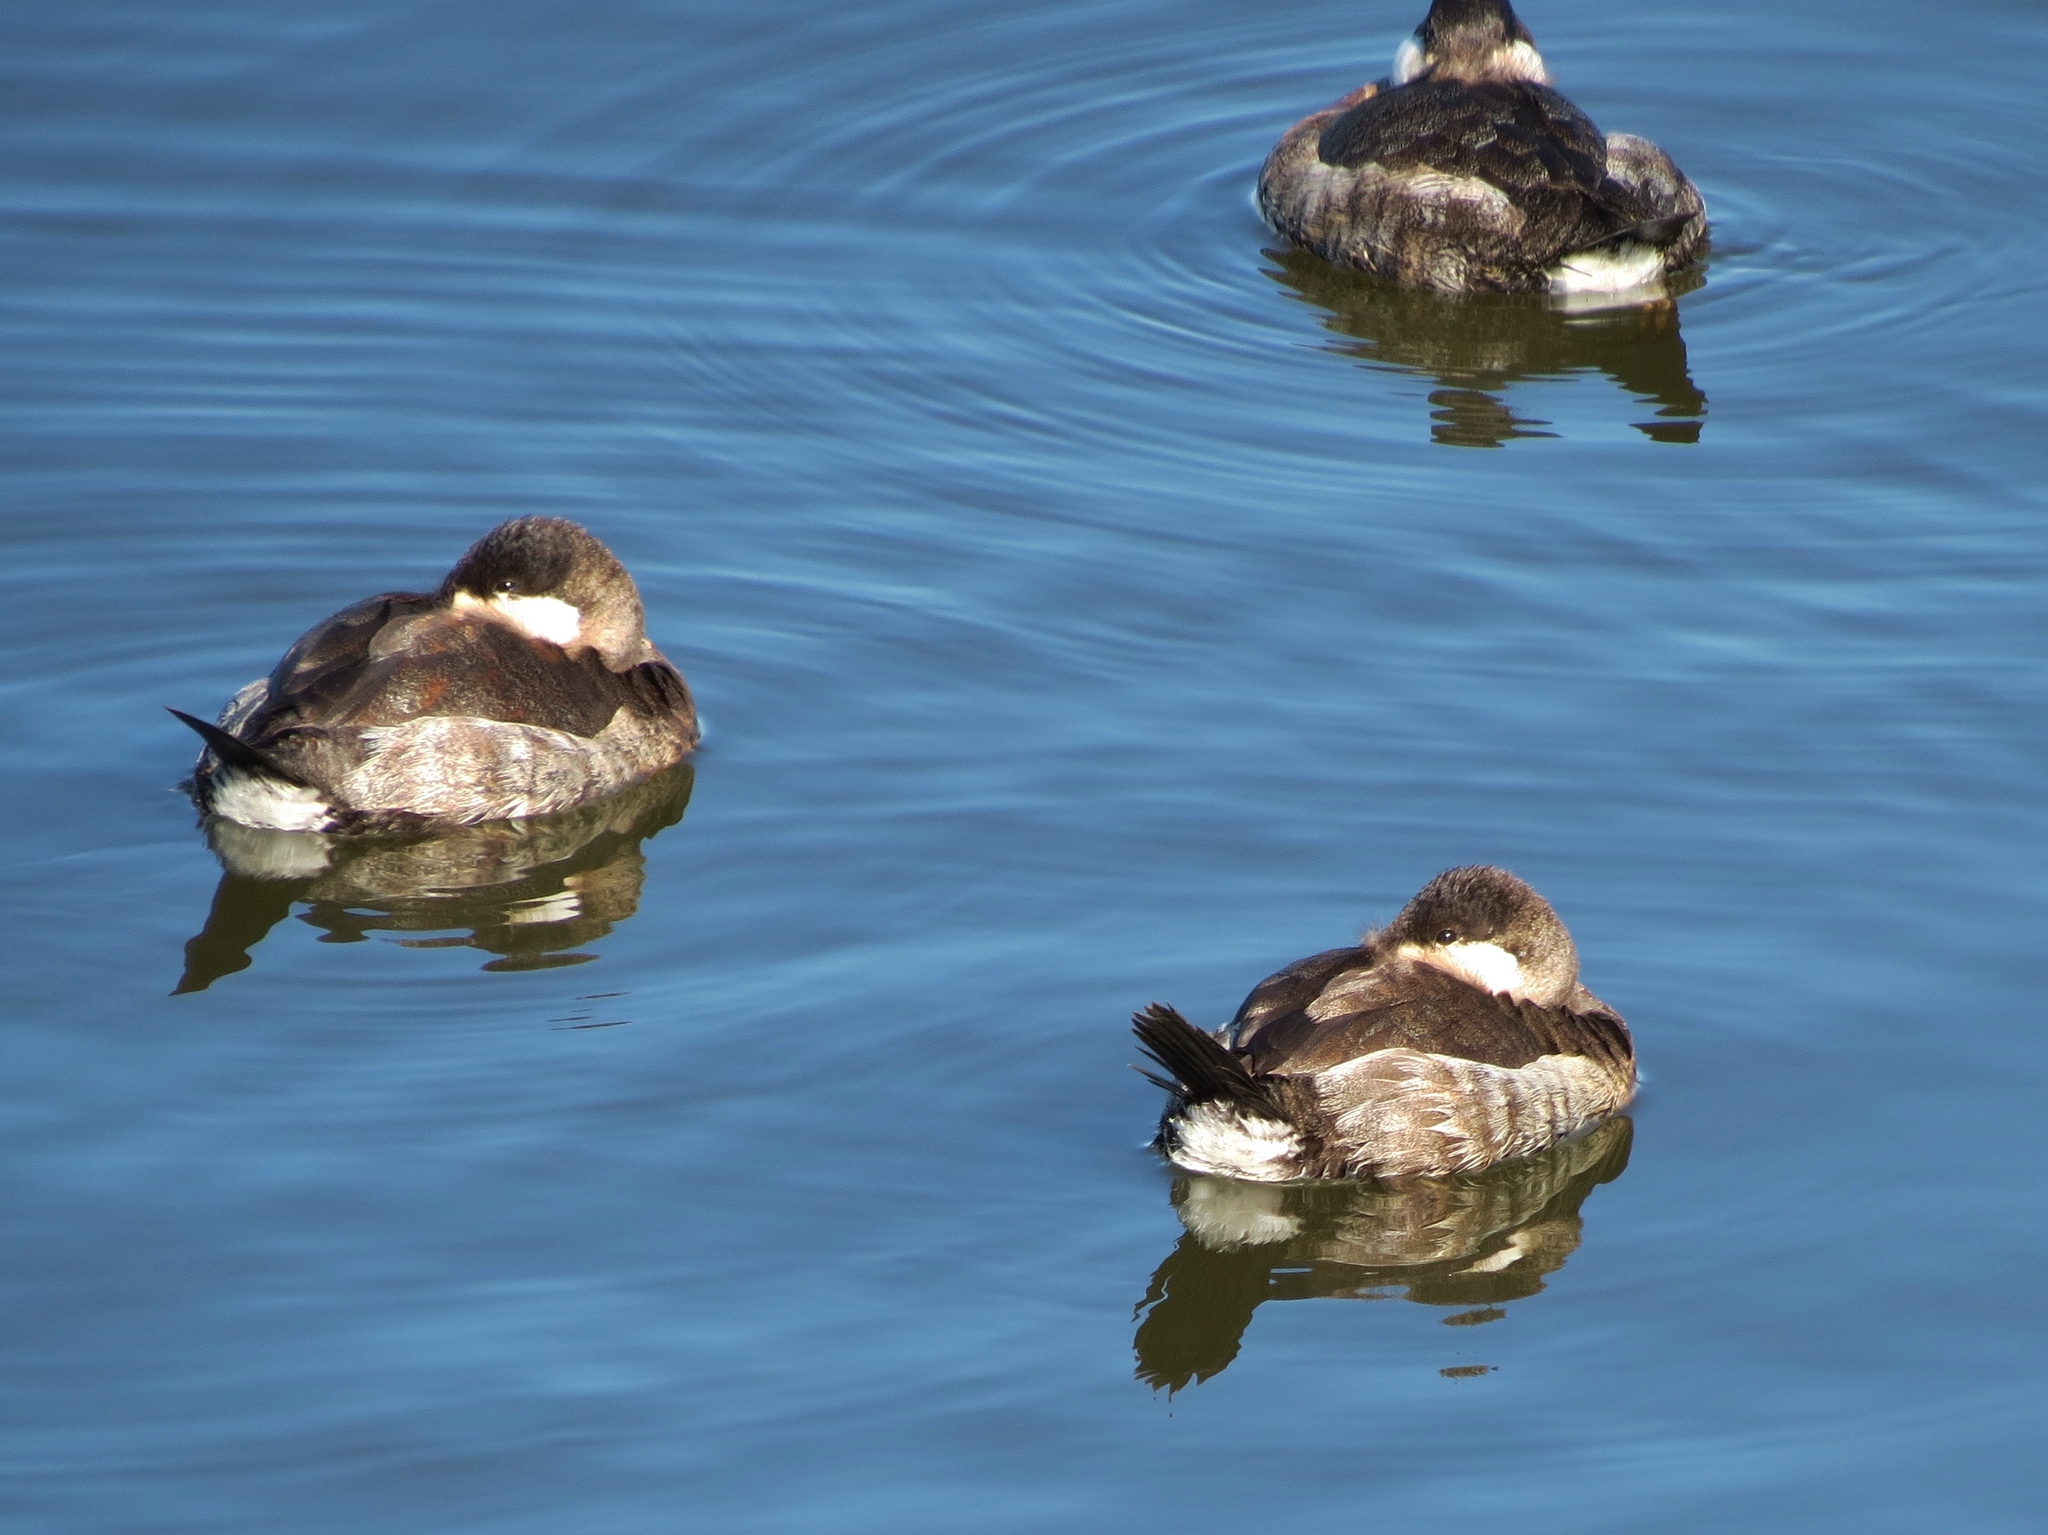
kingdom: Animalia
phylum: Chordata
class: Aves
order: Anseriformes
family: Anatidae
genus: Oxyura
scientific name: Oxyura jamaicensis
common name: Ruddy duck
